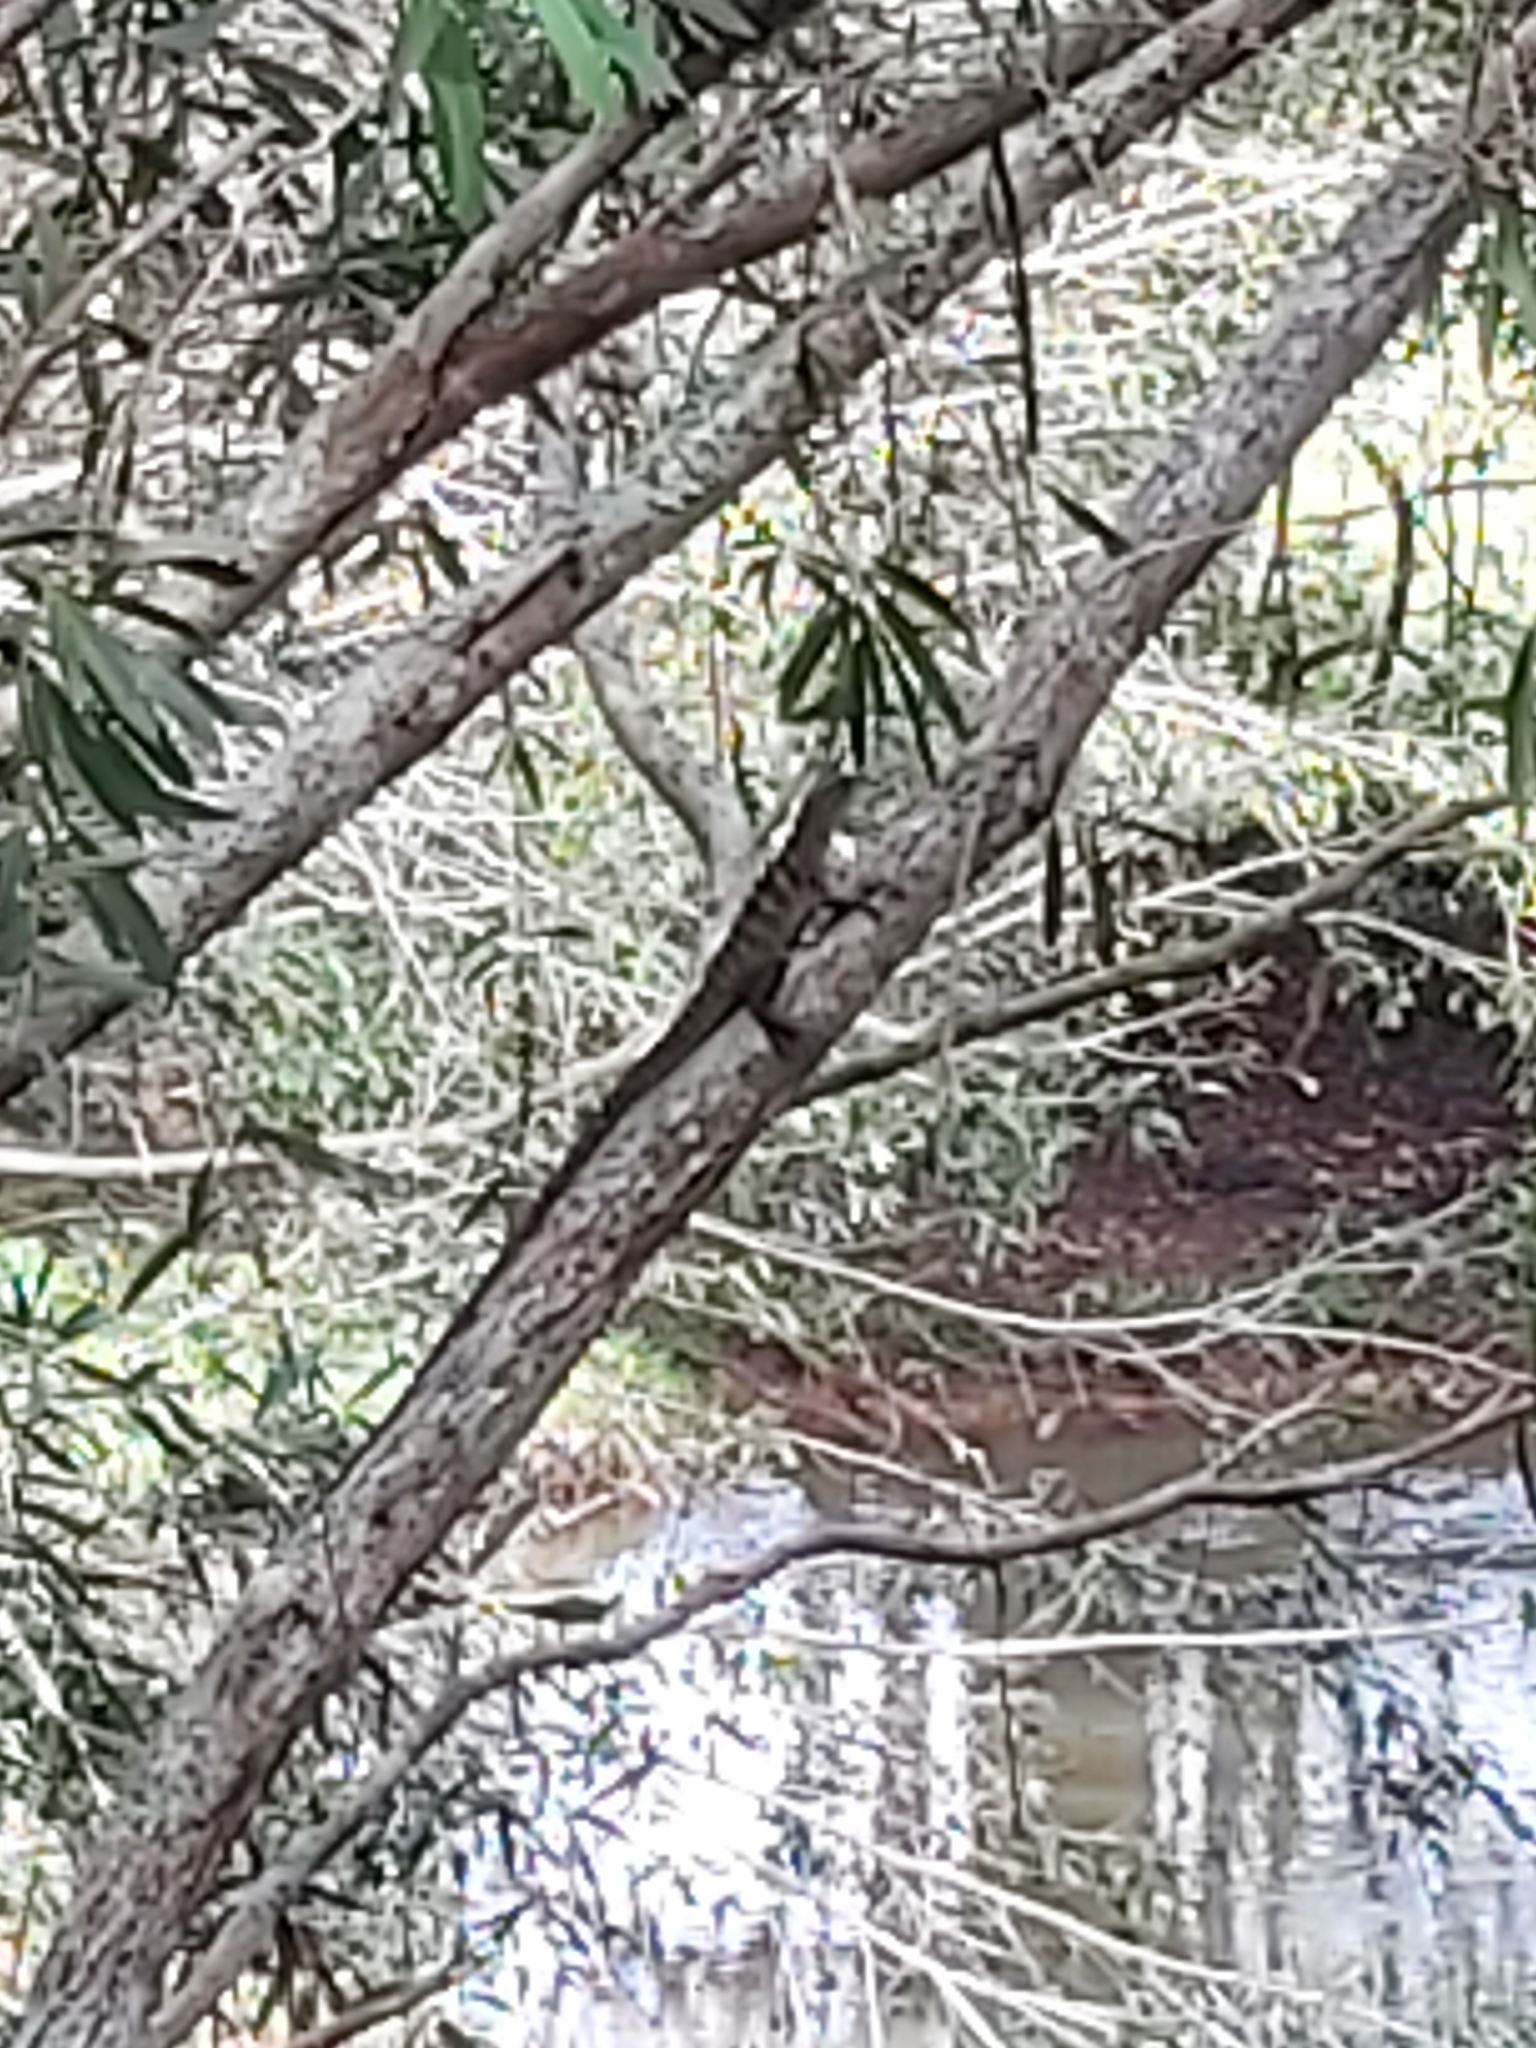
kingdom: Animalia
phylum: Chordata
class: Squamata
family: Agamidae
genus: Intellagama
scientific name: Intellagama lesueurii
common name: Eastern water dragon
